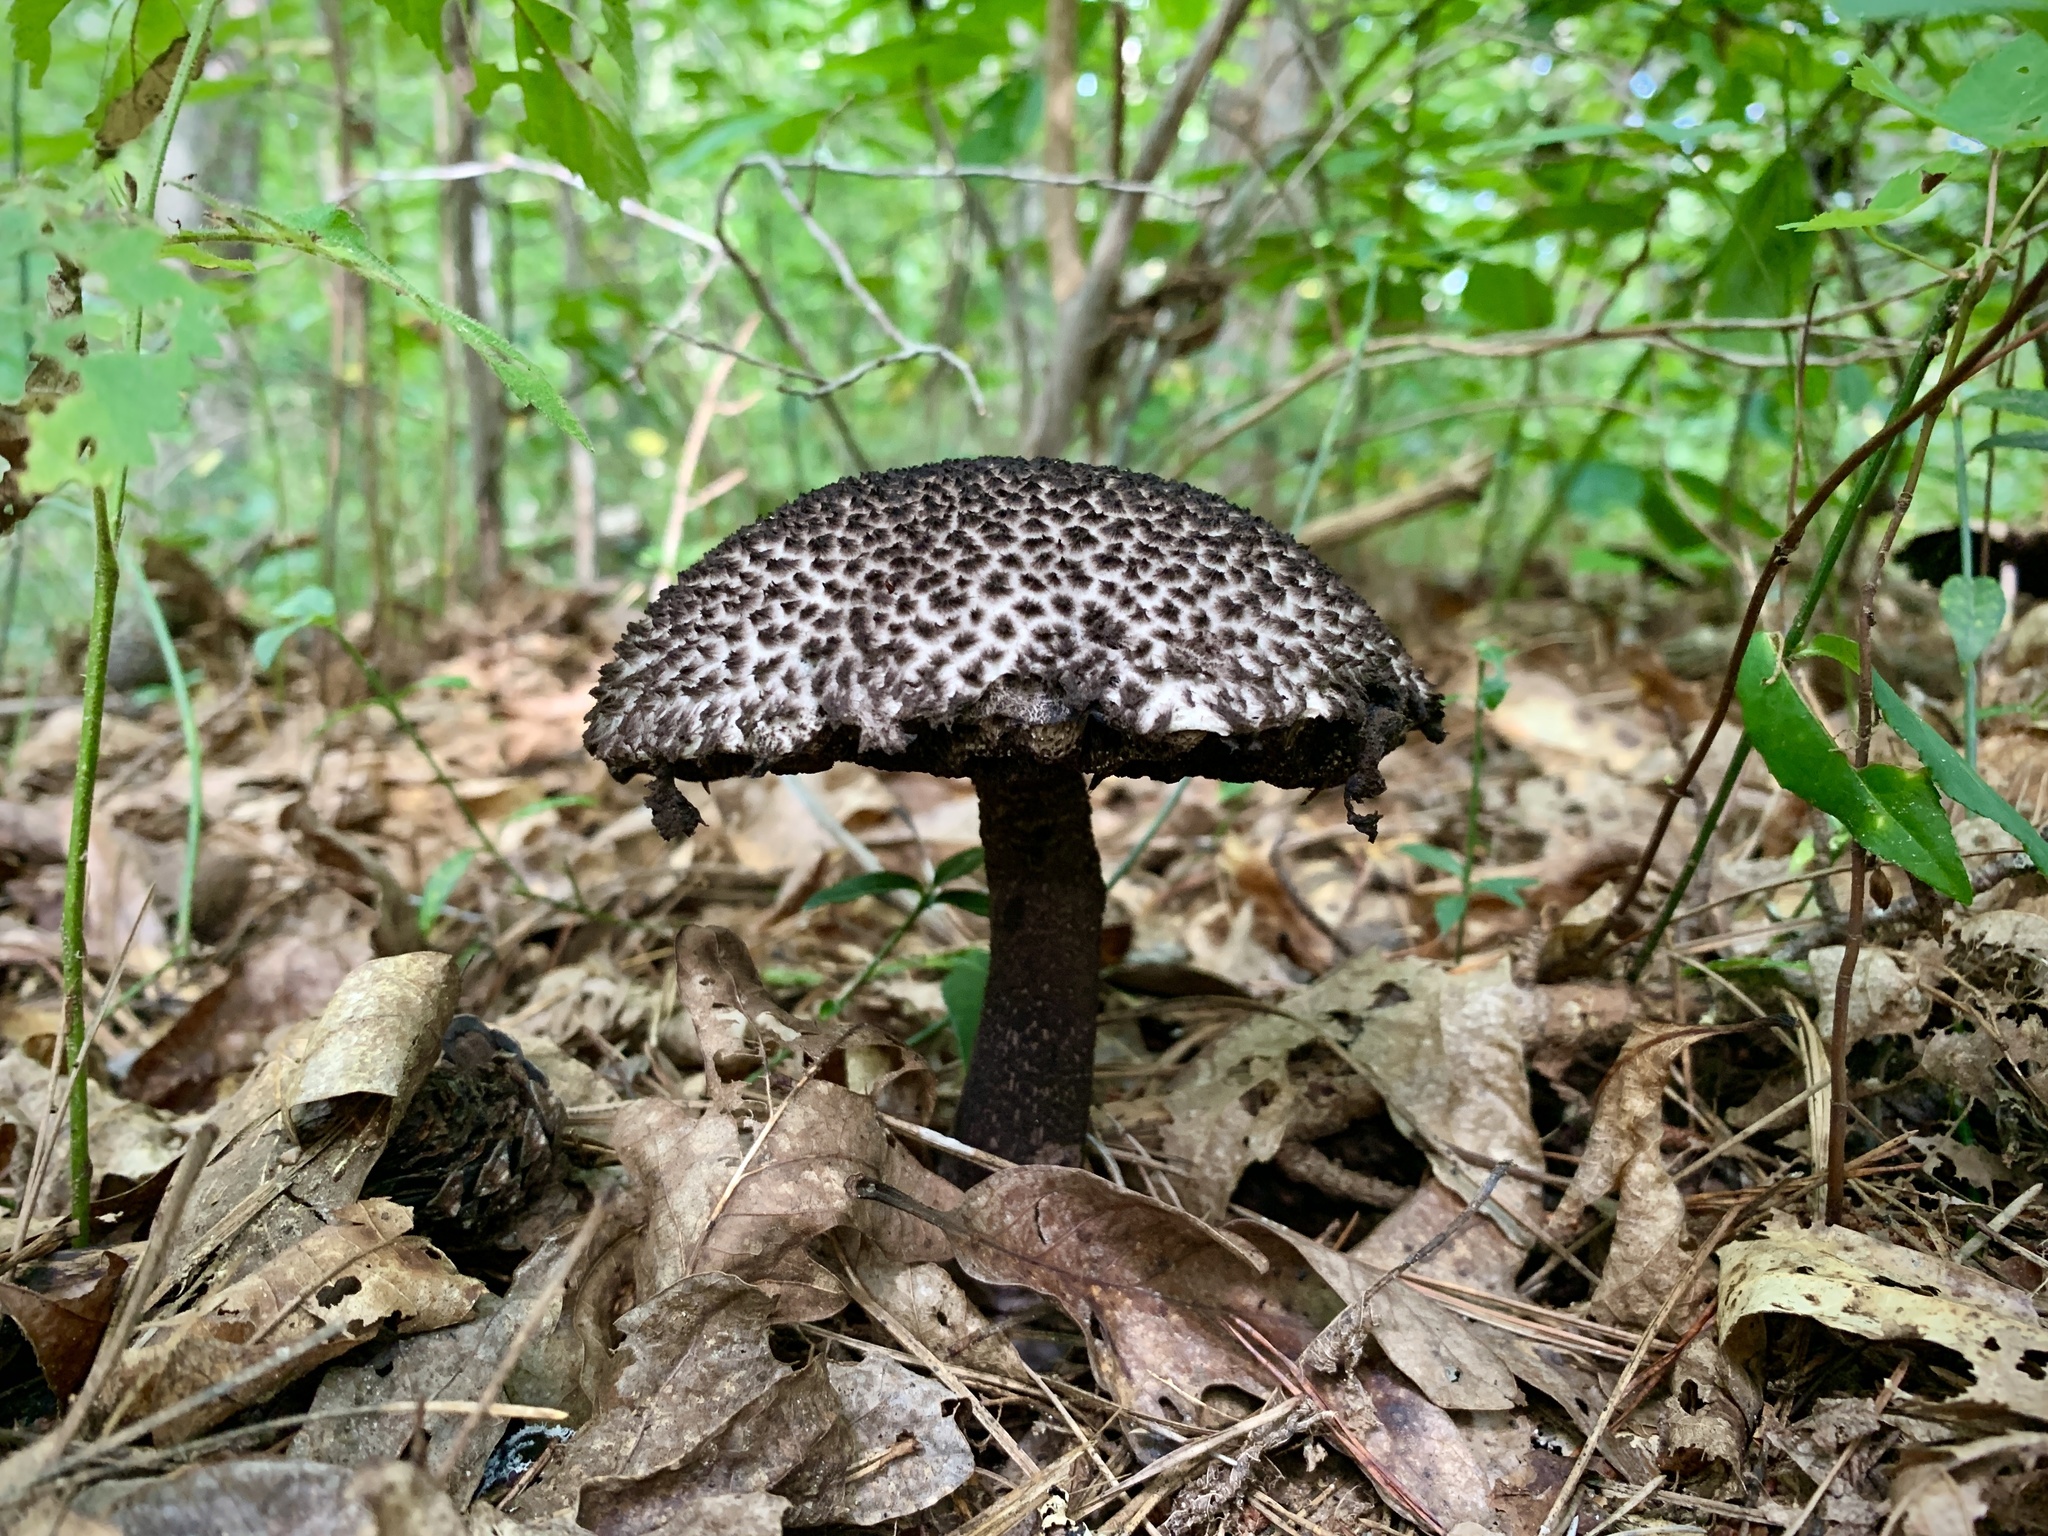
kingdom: Fungi
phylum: Basidiomycota
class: Agaricomycetes
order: Boletales
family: Boletaceae
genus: Strobilomyces
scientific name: Strobilomyces strobilaceus
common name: Old man of the woods
